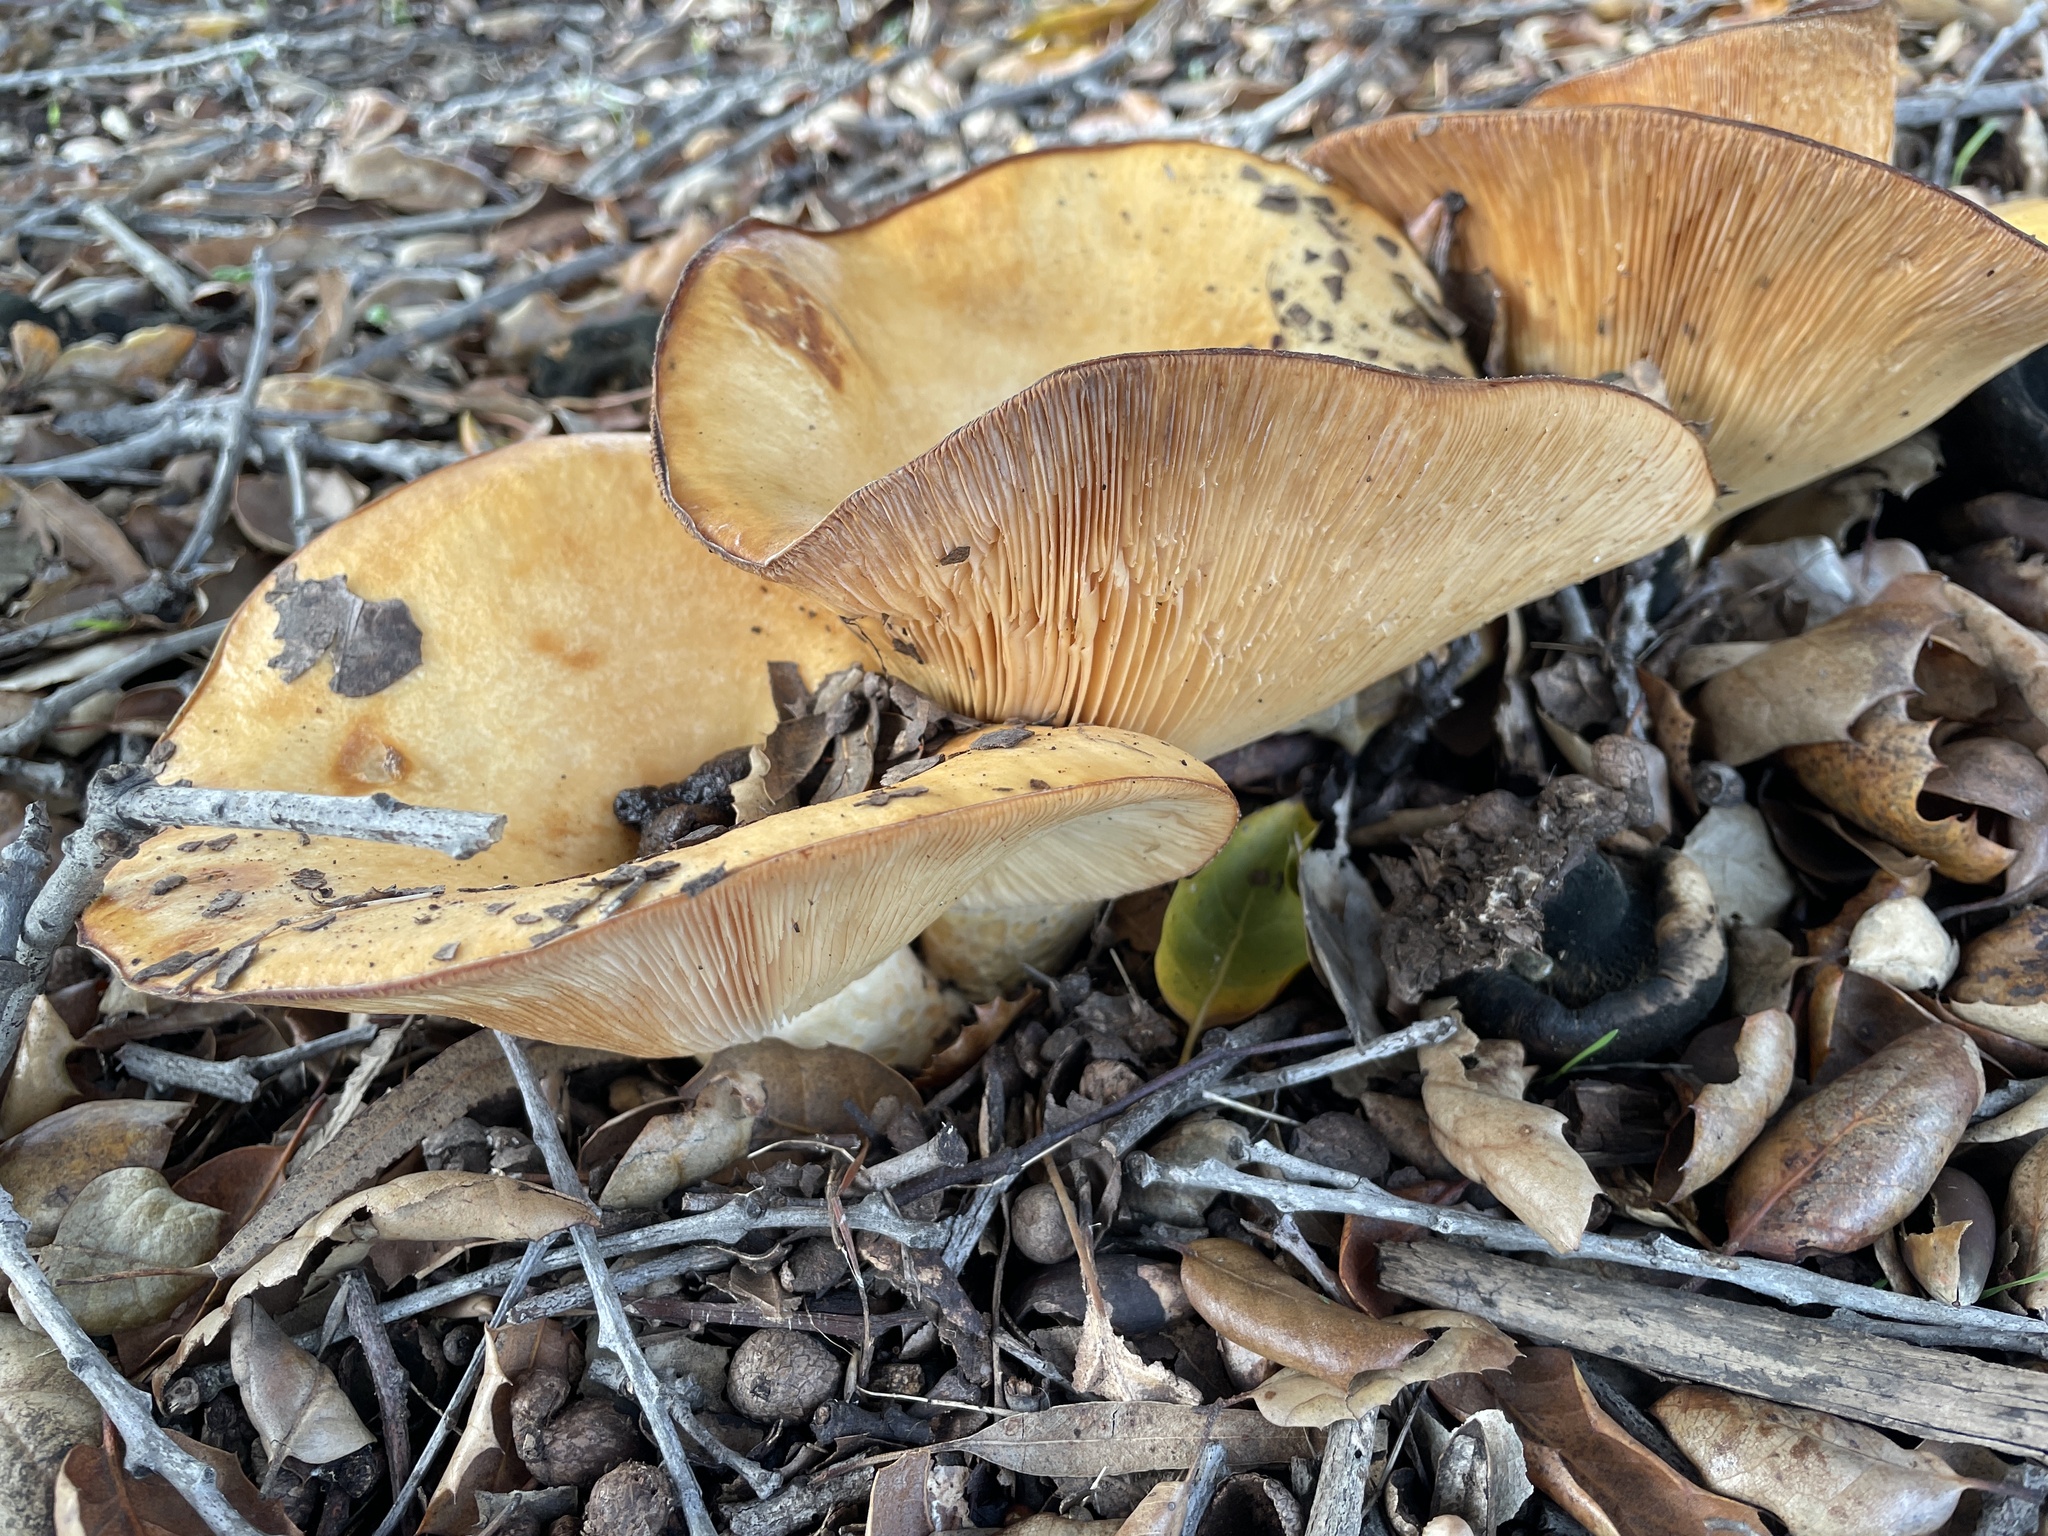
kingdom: Fungi
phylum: Basidiomycota
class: Agaricomycetes
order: Russulales
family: Russulaceae
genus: Lactarius
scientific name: Lactarius alnicola
